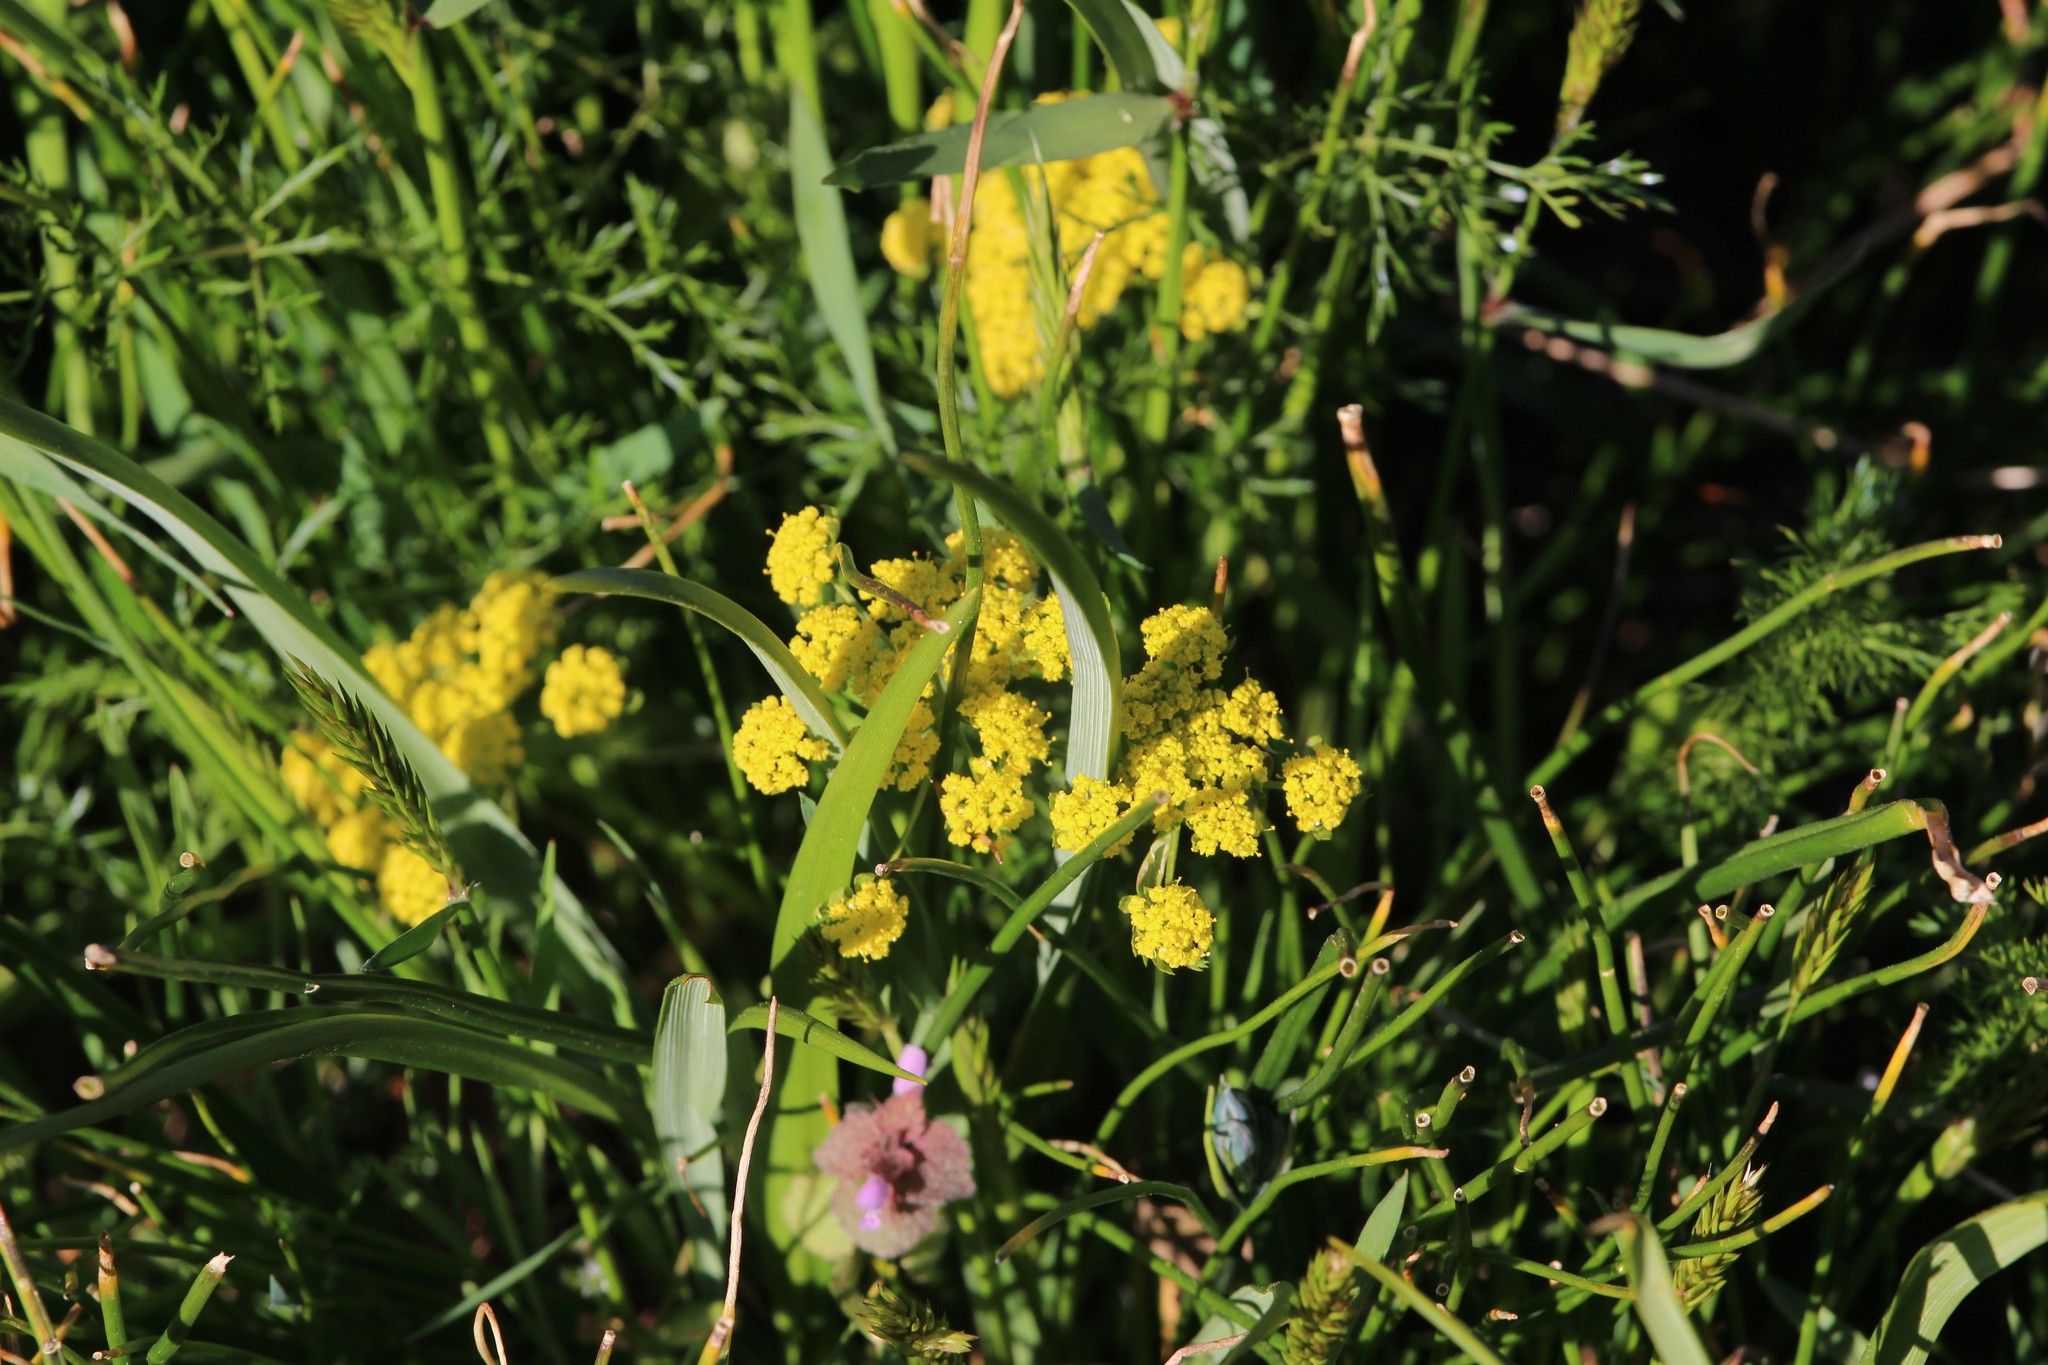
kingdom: Plantae
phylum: Tracheophyta
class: Magnoliopsida
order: Apiales
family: Apiaceae
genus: Lomatium
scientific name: Lomatium utriculatum
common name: Fine-leaf desert-parsley
